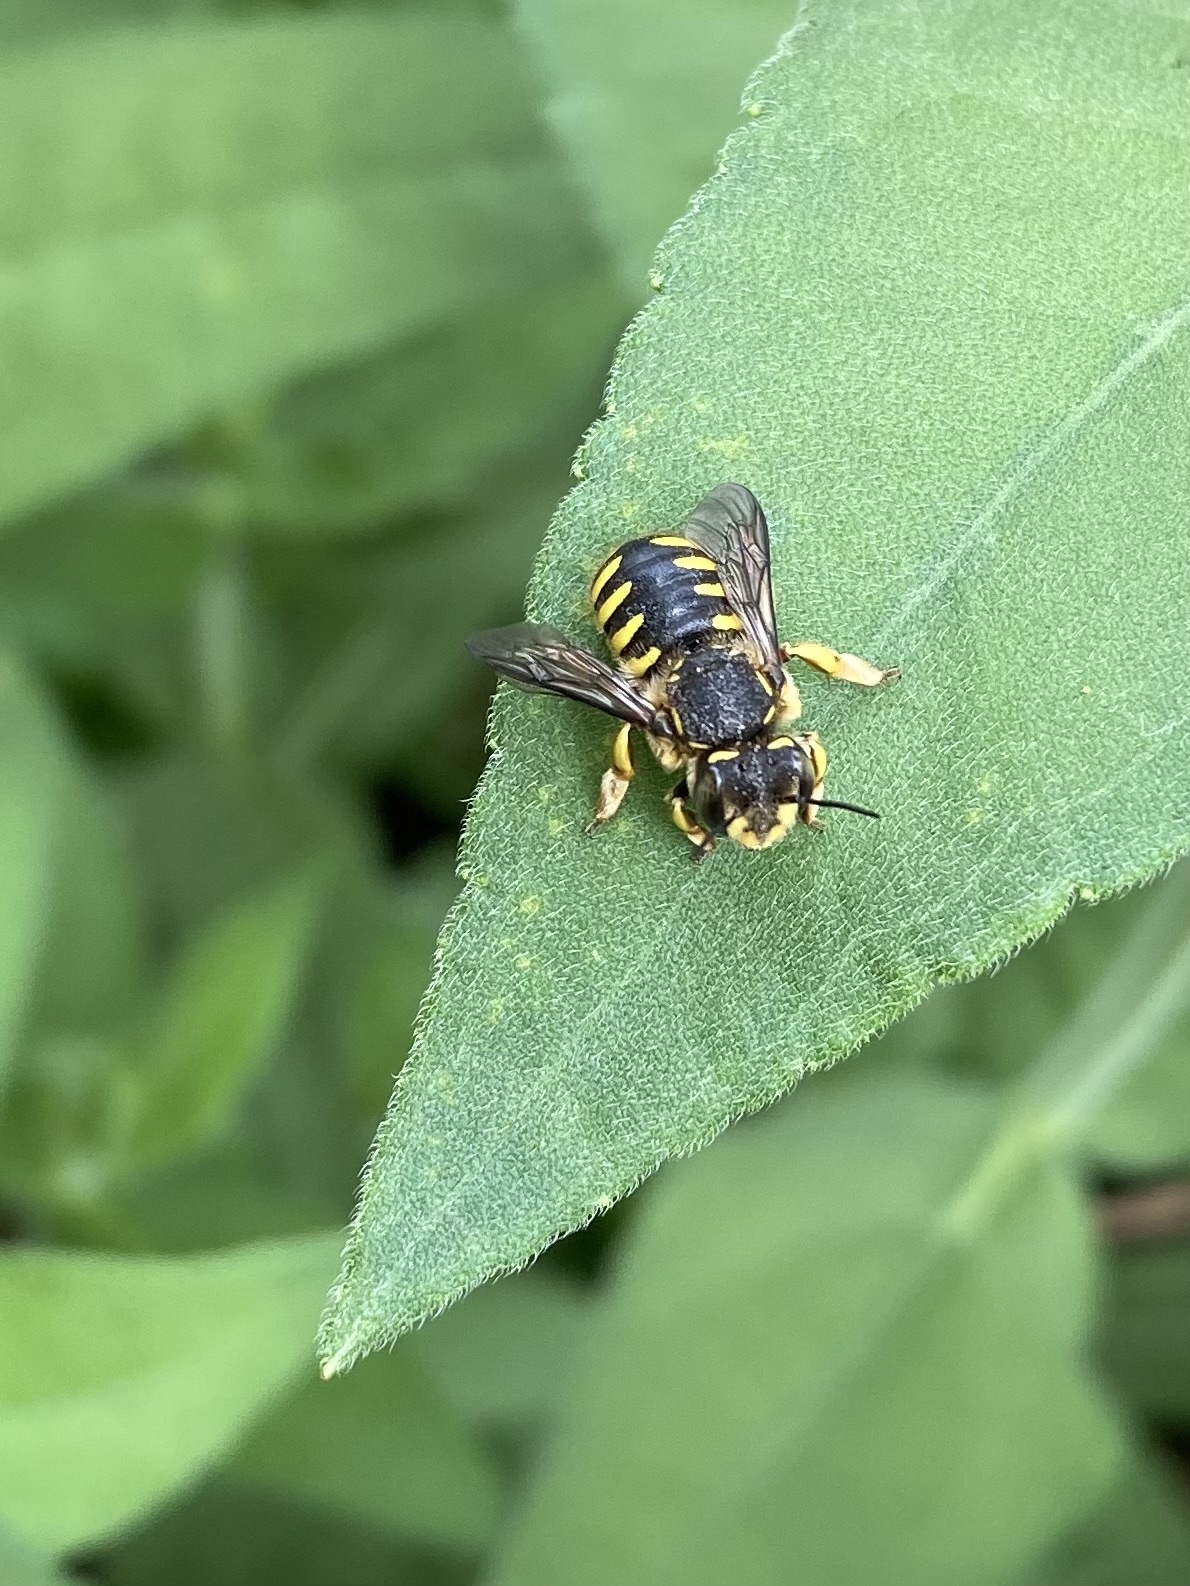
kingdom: Animalia
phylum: Arthropoda
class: Insecta
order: Hymenoptera
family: Megachilidae
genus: Anthidium
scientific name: Anthidium manicatum
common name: Wool carder bee
